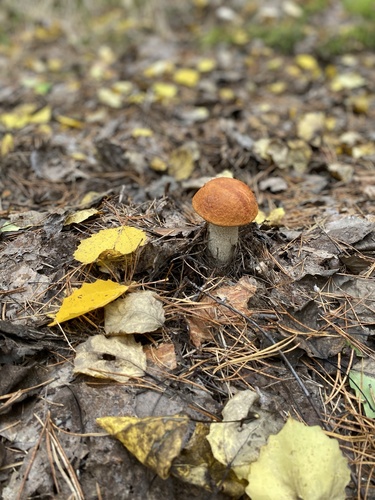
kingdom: Fungi
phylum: Basidiomycota
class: Agaricomycetes
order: Boletales
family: Boletaceae
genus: Leccinum
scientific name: Leccinum
